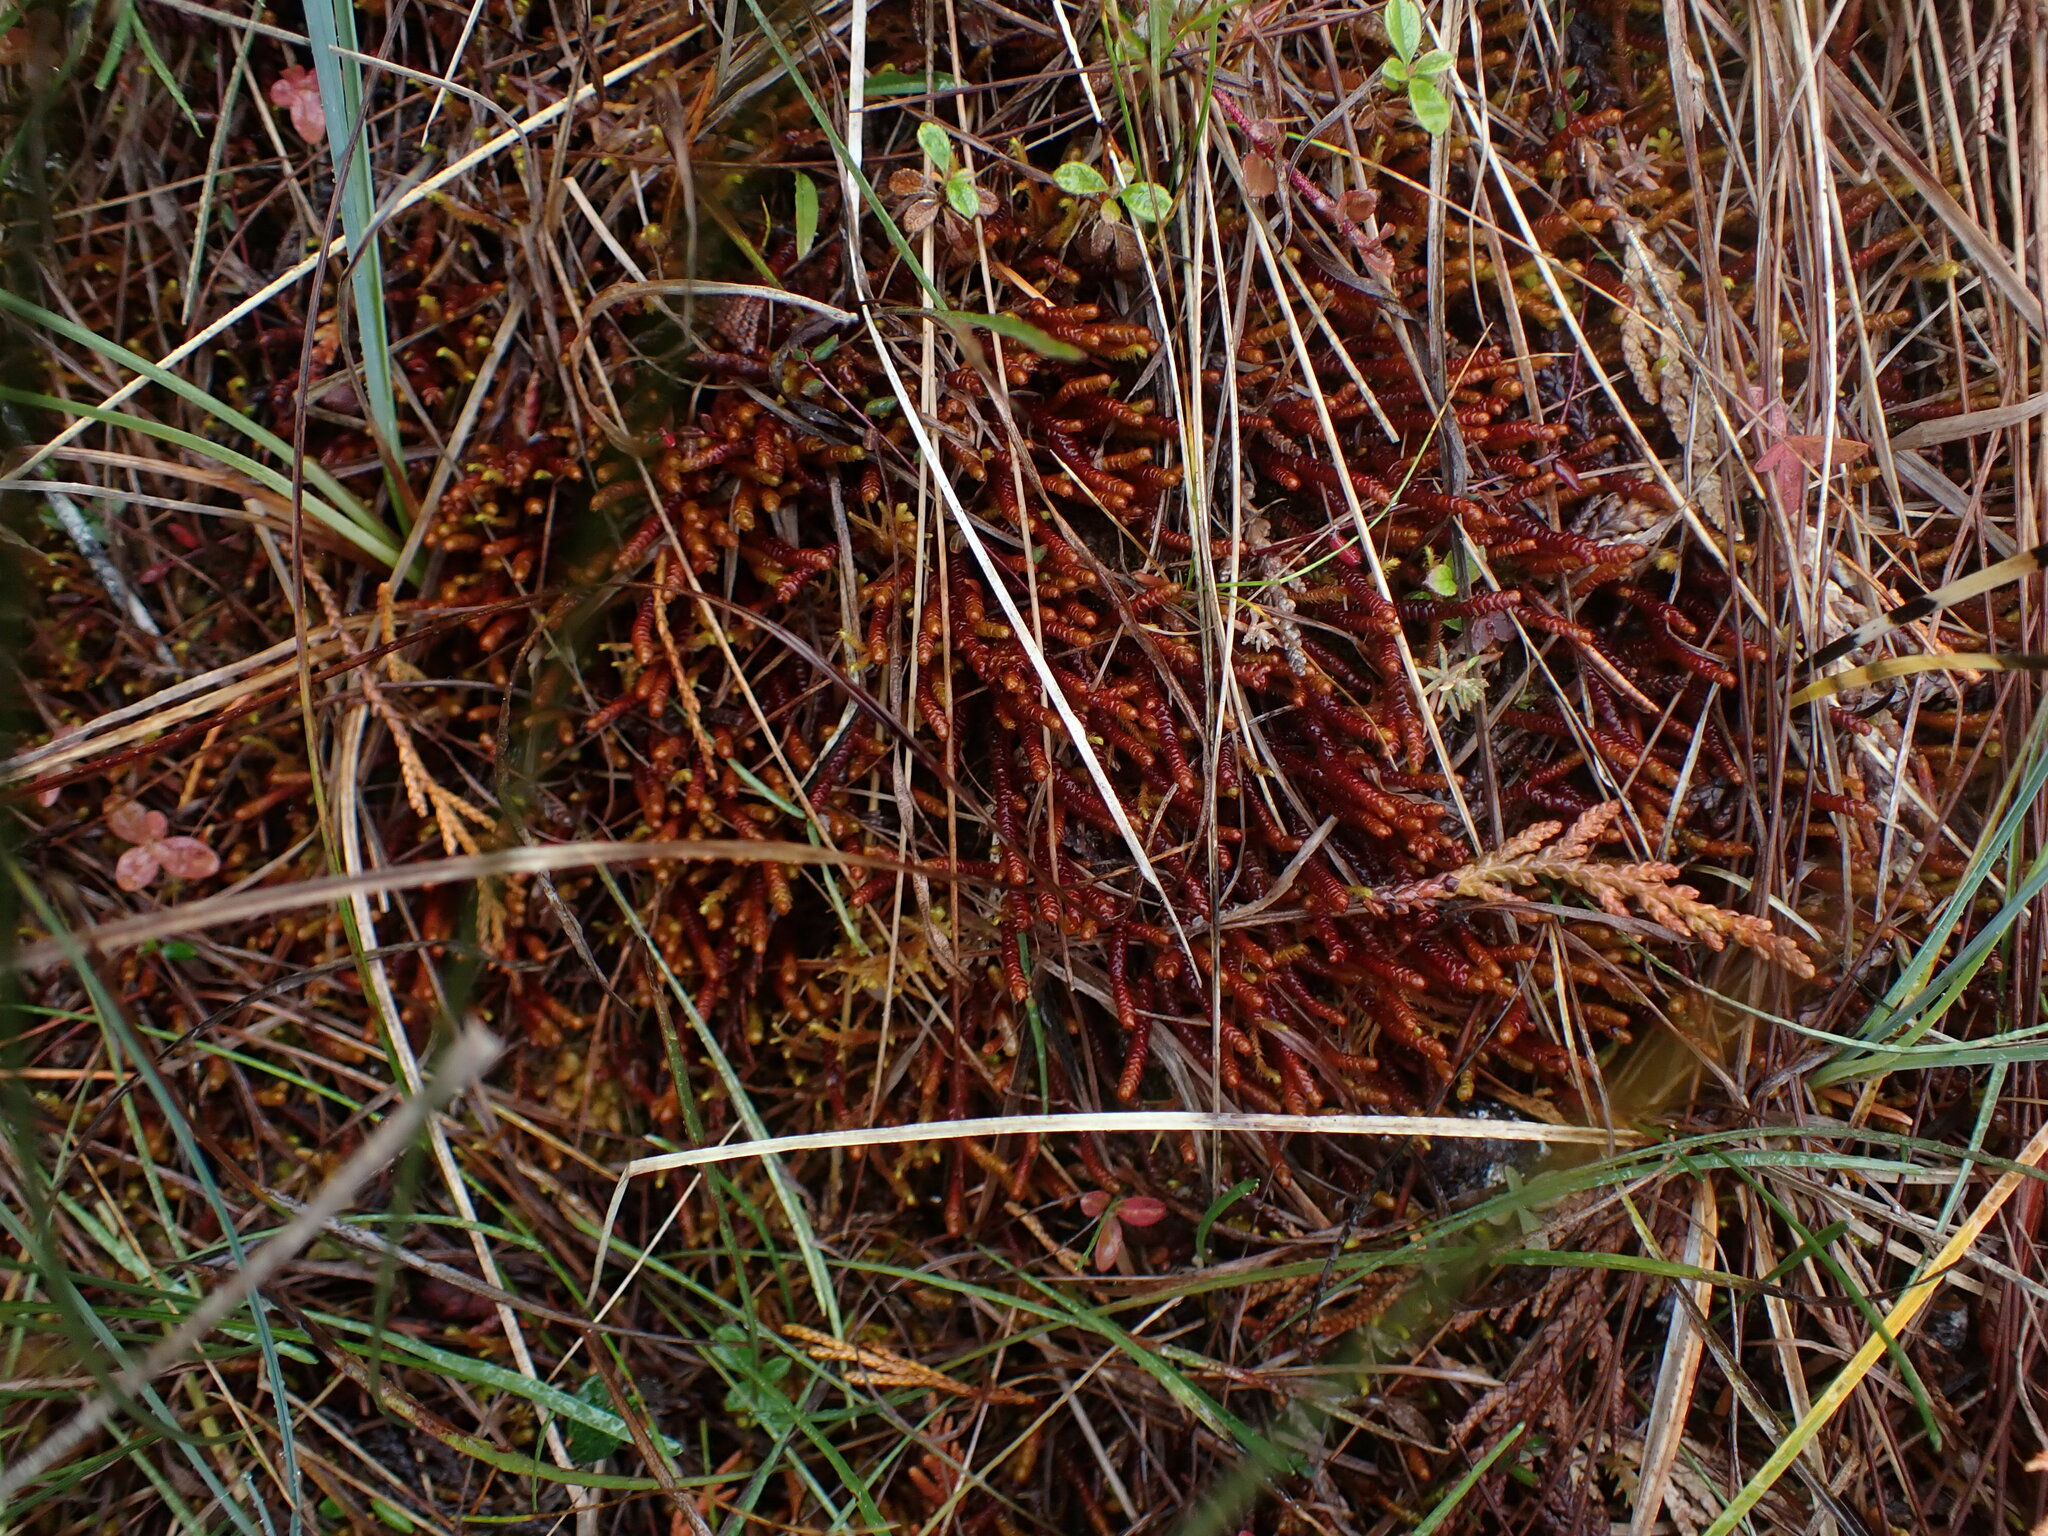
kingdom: Plantae
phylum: Marchantiophyta
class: Jungermanniopsida
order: Pleuroziales
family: Pleuroziaceae
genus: Pleurozia
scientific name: Pleurozia purpurea
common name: Purple spoonwort
